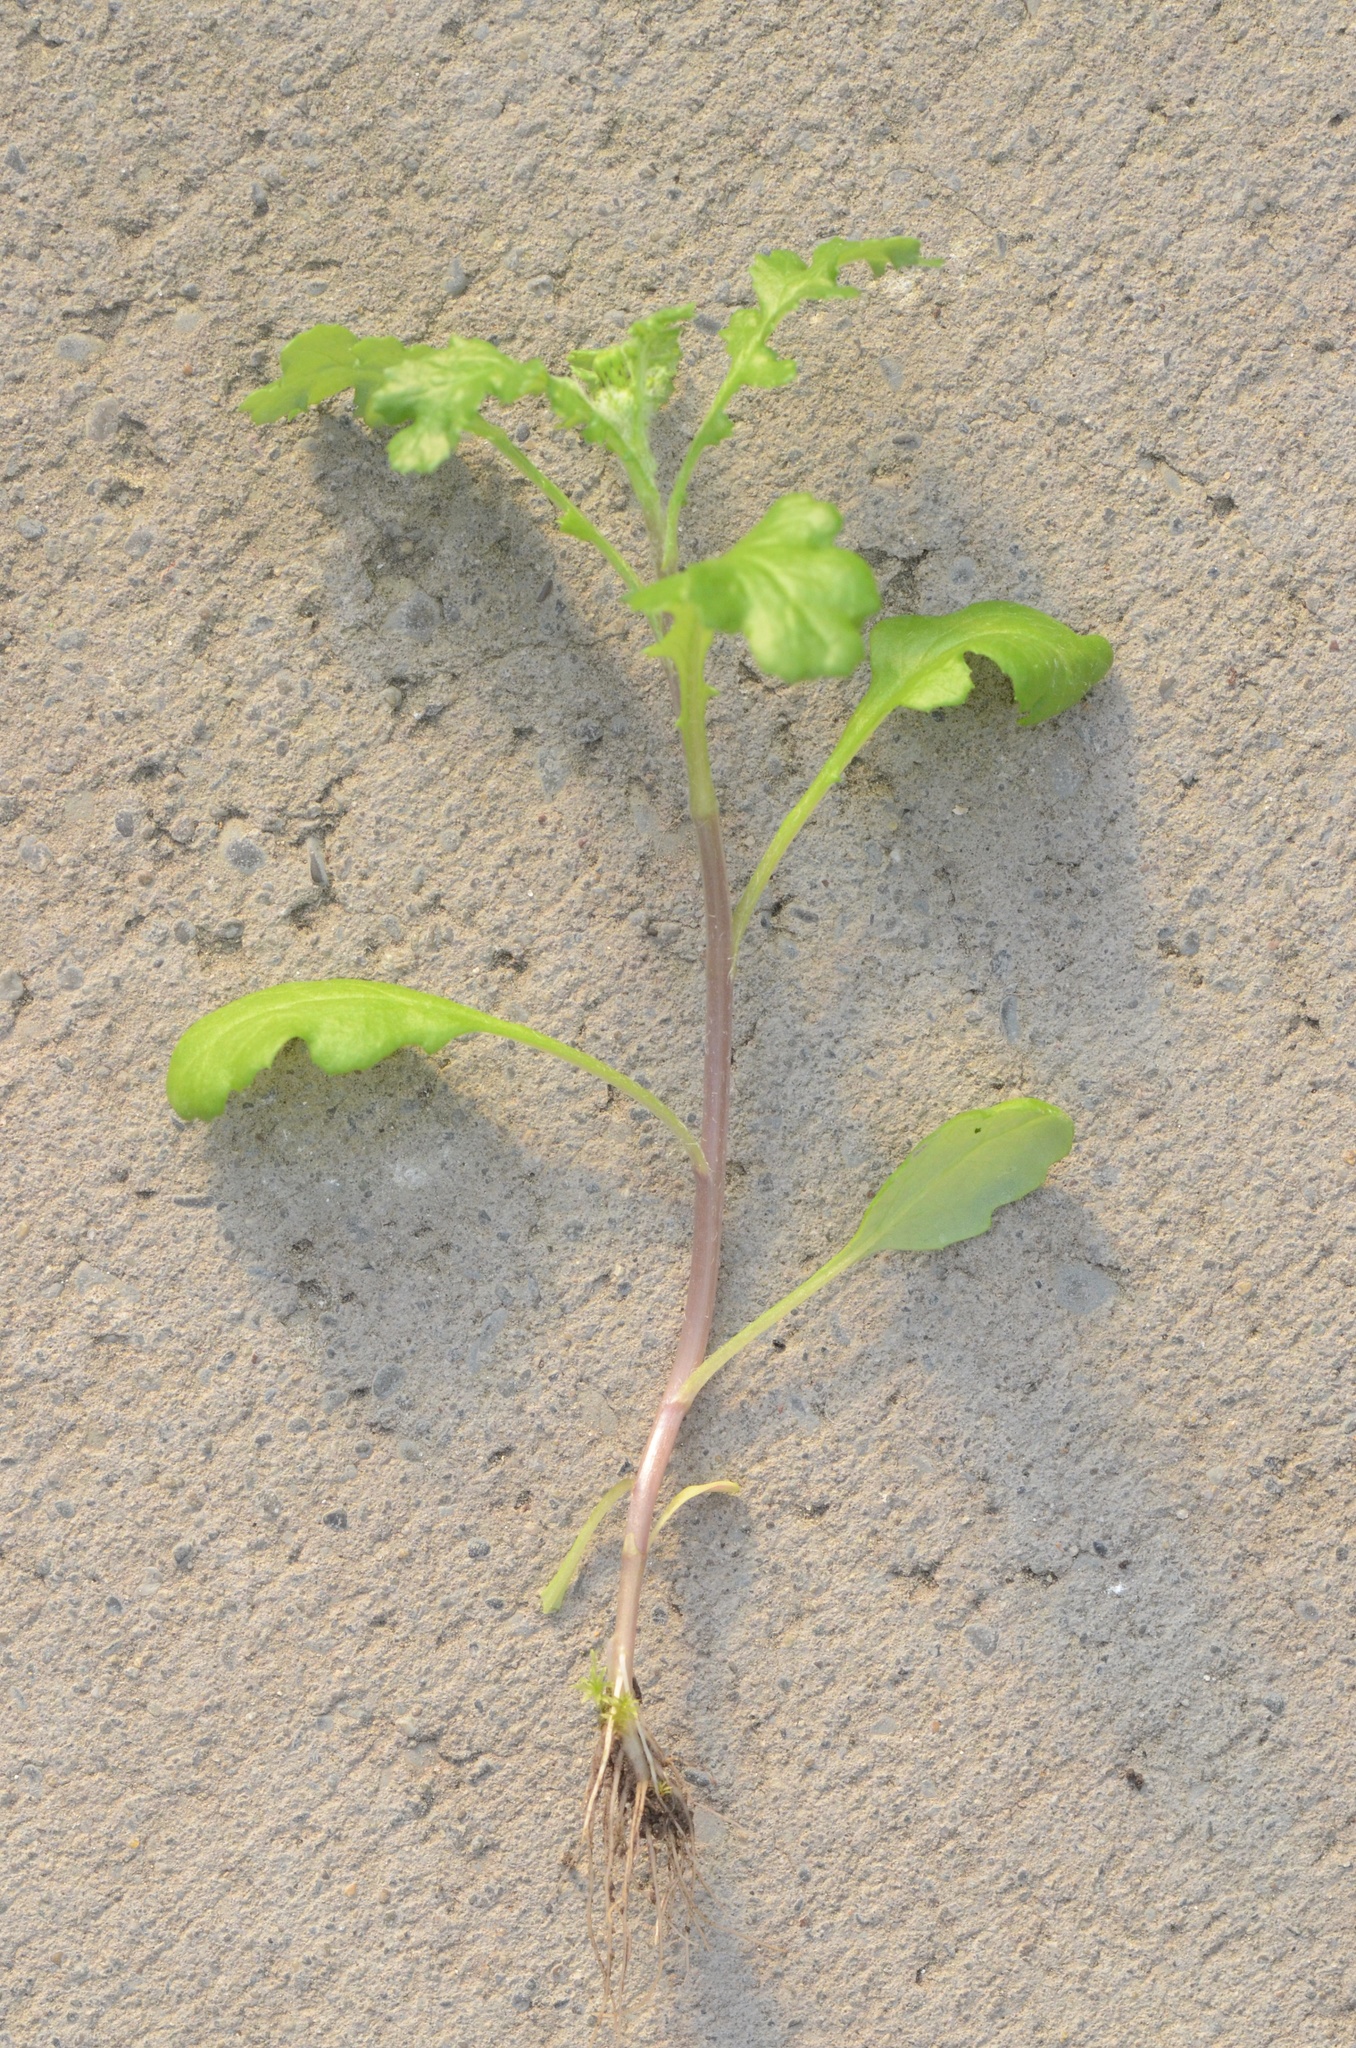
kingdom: Plantae
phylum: Tracheophyta
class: Magnoliopsida
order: Asterales
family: Asteraceae
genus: Senecio
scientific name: Senecio vulgaris
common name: Old-man-in-the-spring
